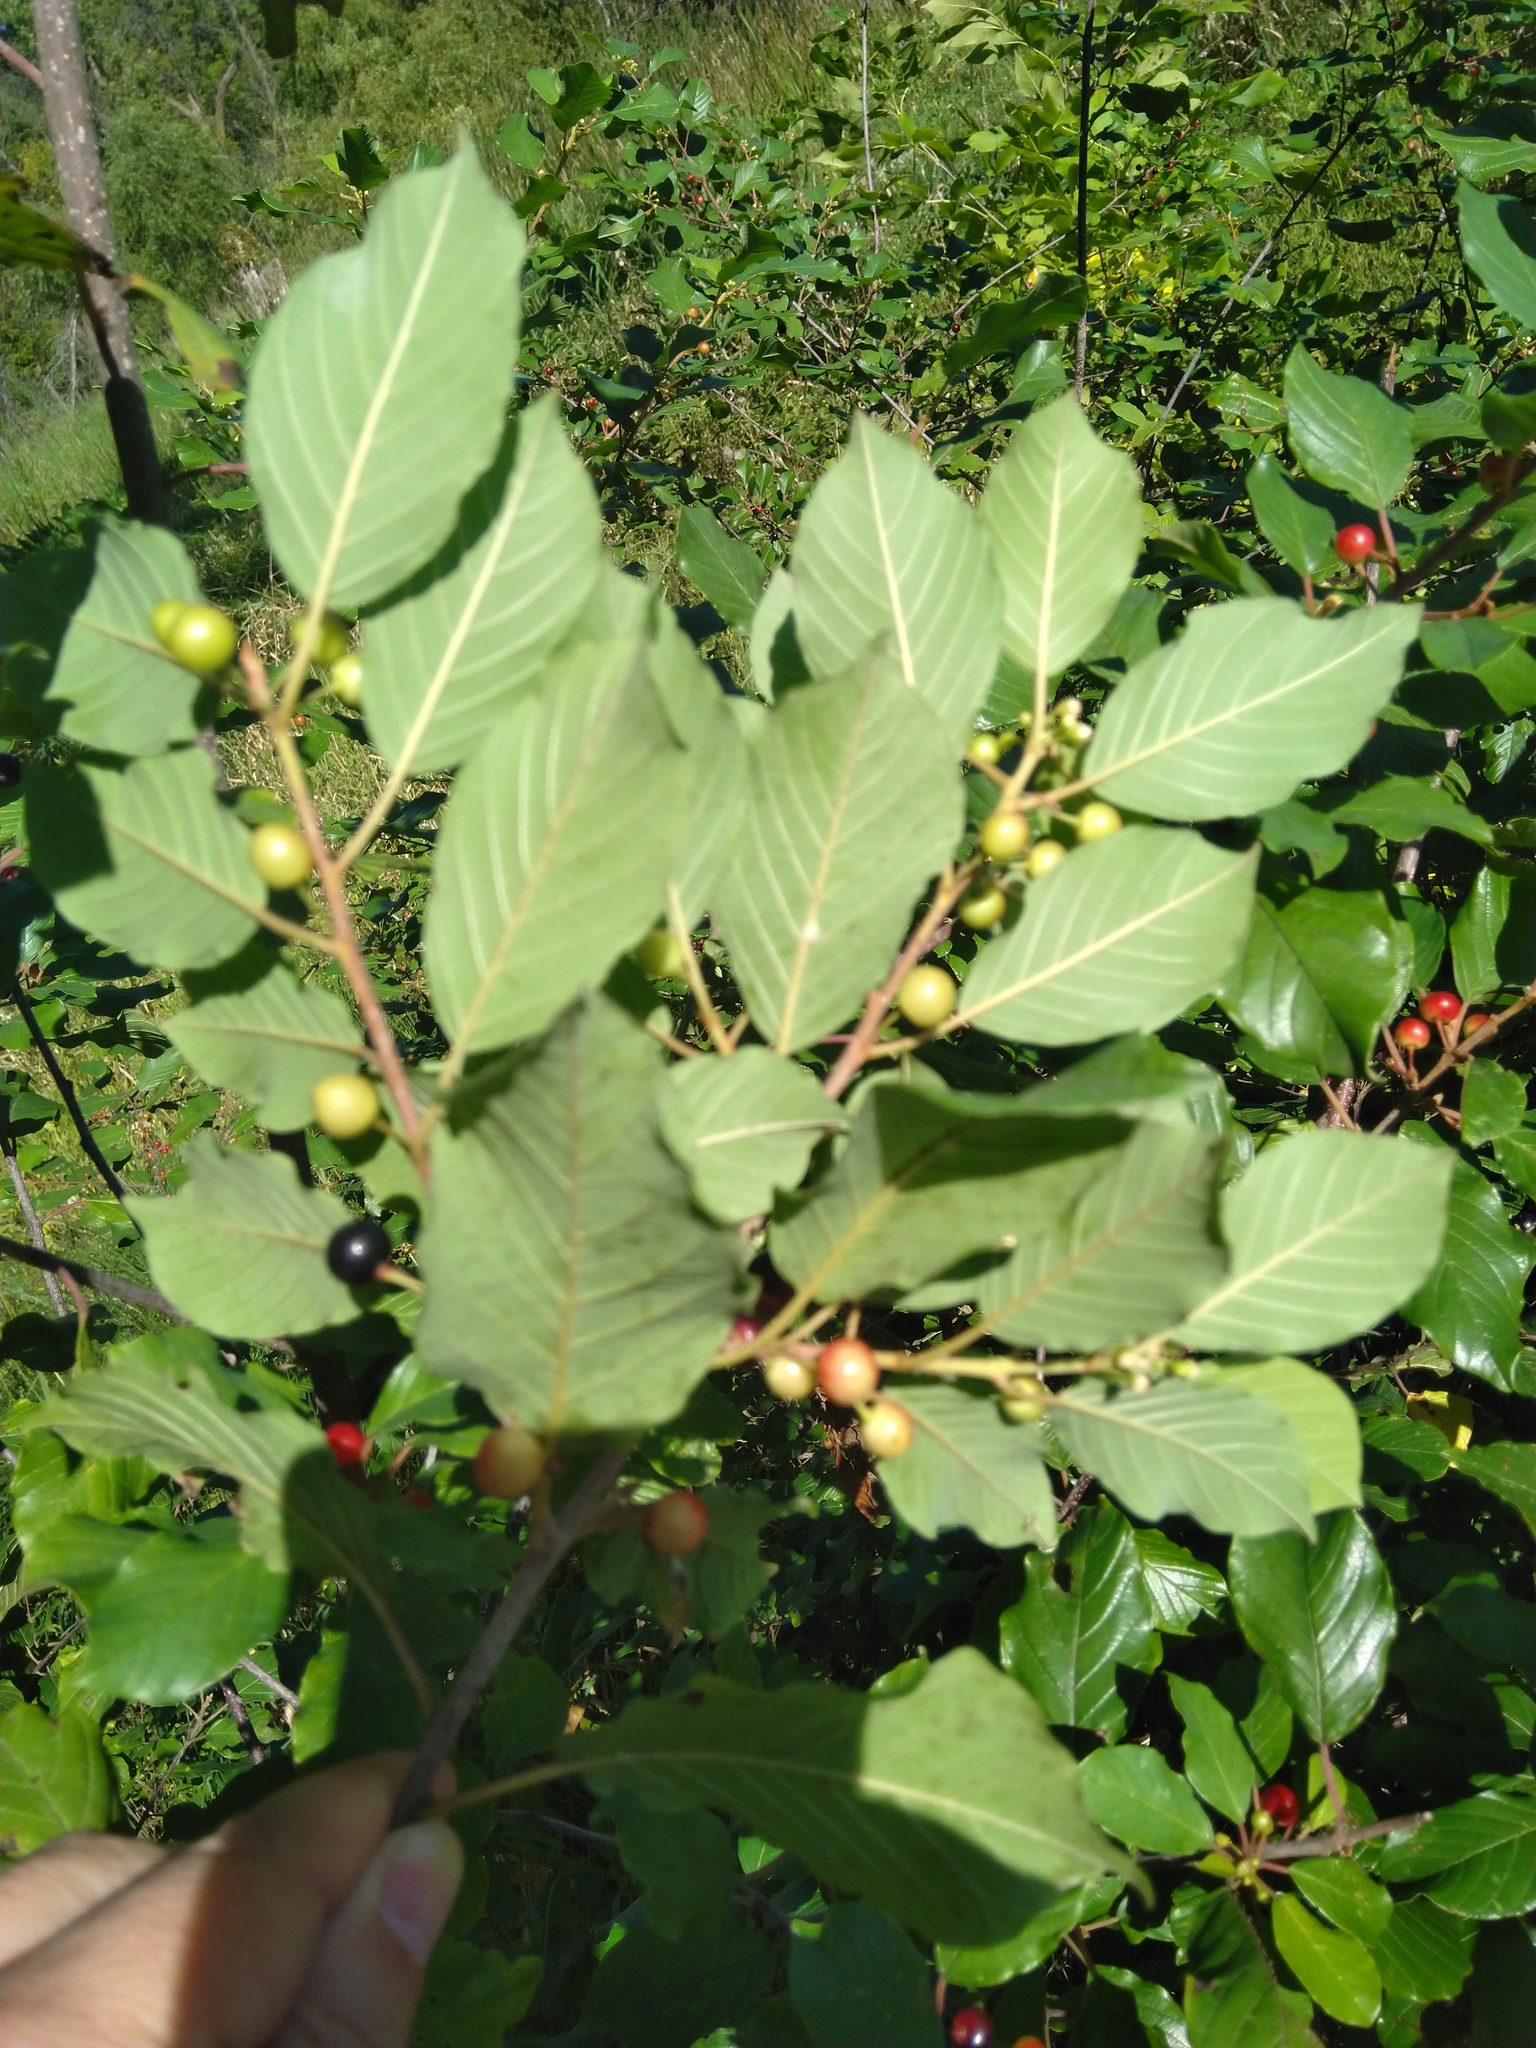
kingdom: Plantae
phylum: Tracheophyta
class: Magnoliopsida
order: Rosales
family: Rhamnaceae
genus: Frangula
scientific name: Frangula alnus
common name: Alder buckthorn
